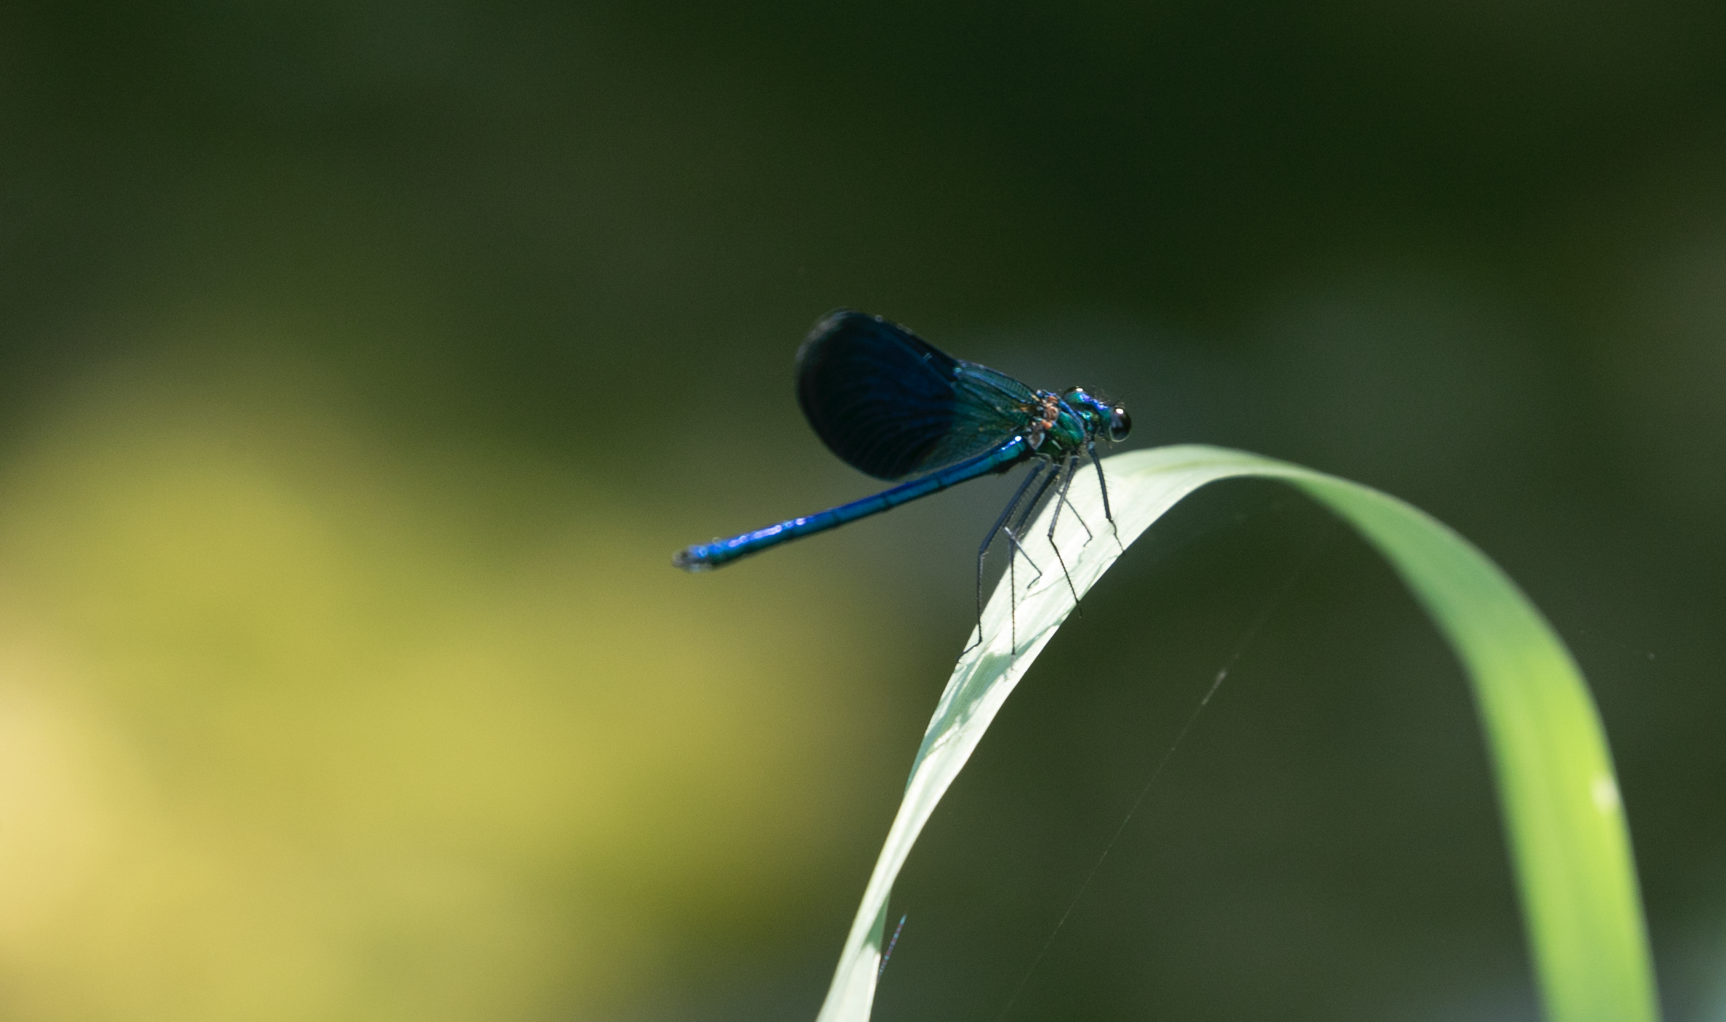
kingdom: Animalia
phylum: Arthropoda
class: Insecta
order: Odonata
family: Calopterygidae
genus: Calopteryx
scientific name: Calopteryx splendens
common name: Banded demoiselle
